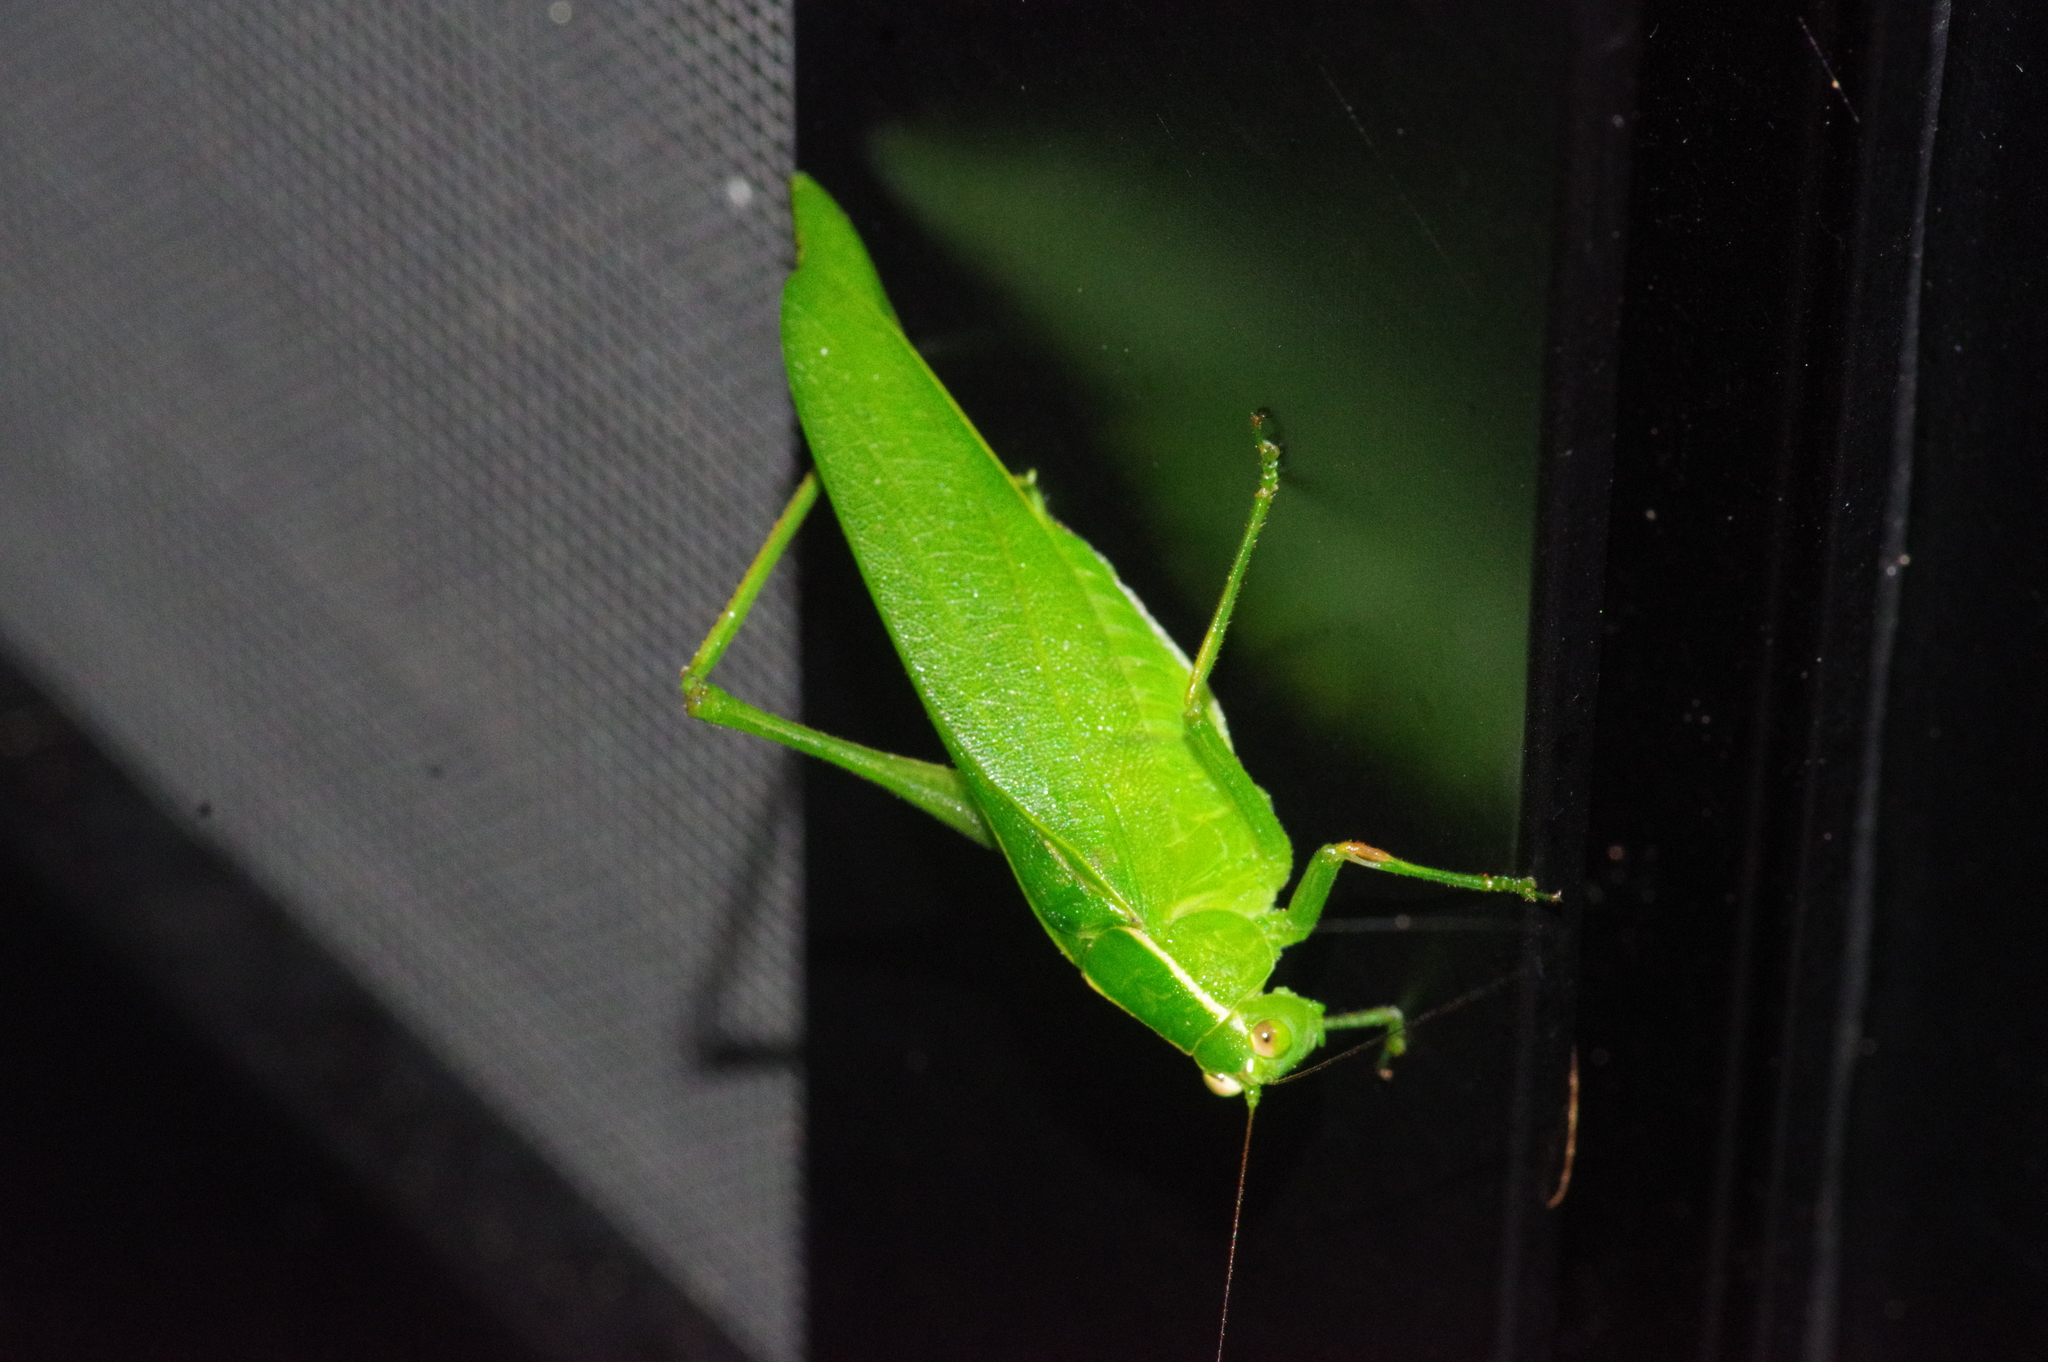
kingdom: Animalia
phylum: Arthropoda
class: Insecta
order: Orthoptera
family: Tettigoniidae
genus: Isopsera
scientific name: Isopsera denticulata
